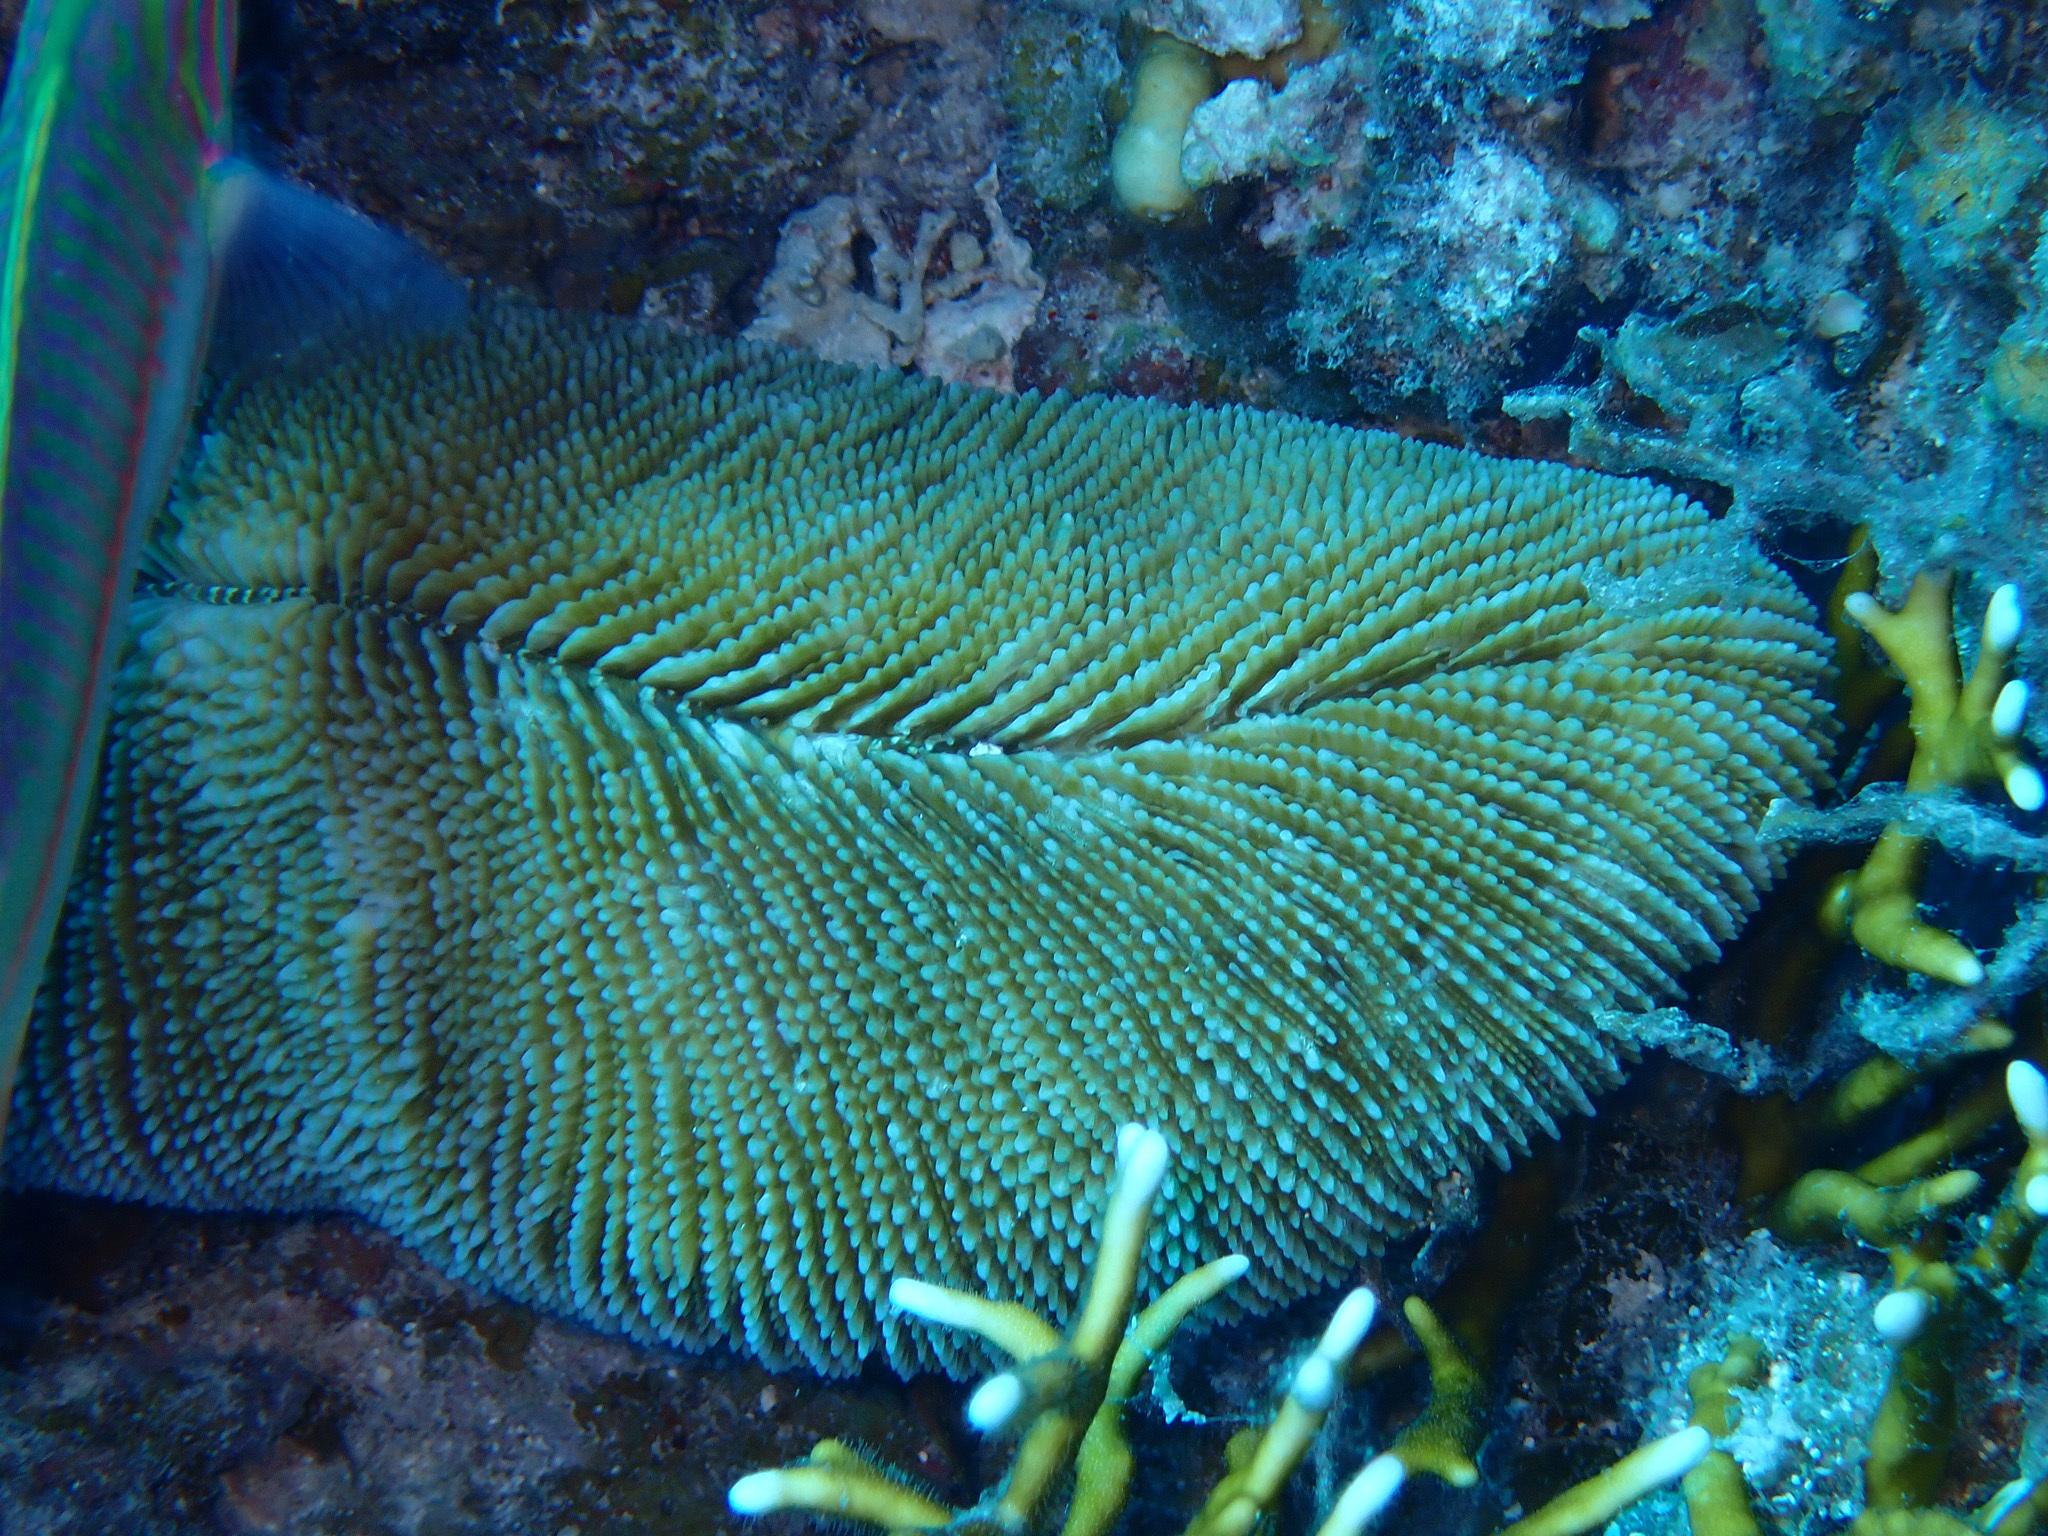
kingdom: Animalia
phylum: Cnidaria
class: Anthozoa
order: Scleractinia
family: Fungiidae
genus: Ctenactis
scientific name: Ctenactis crassa
